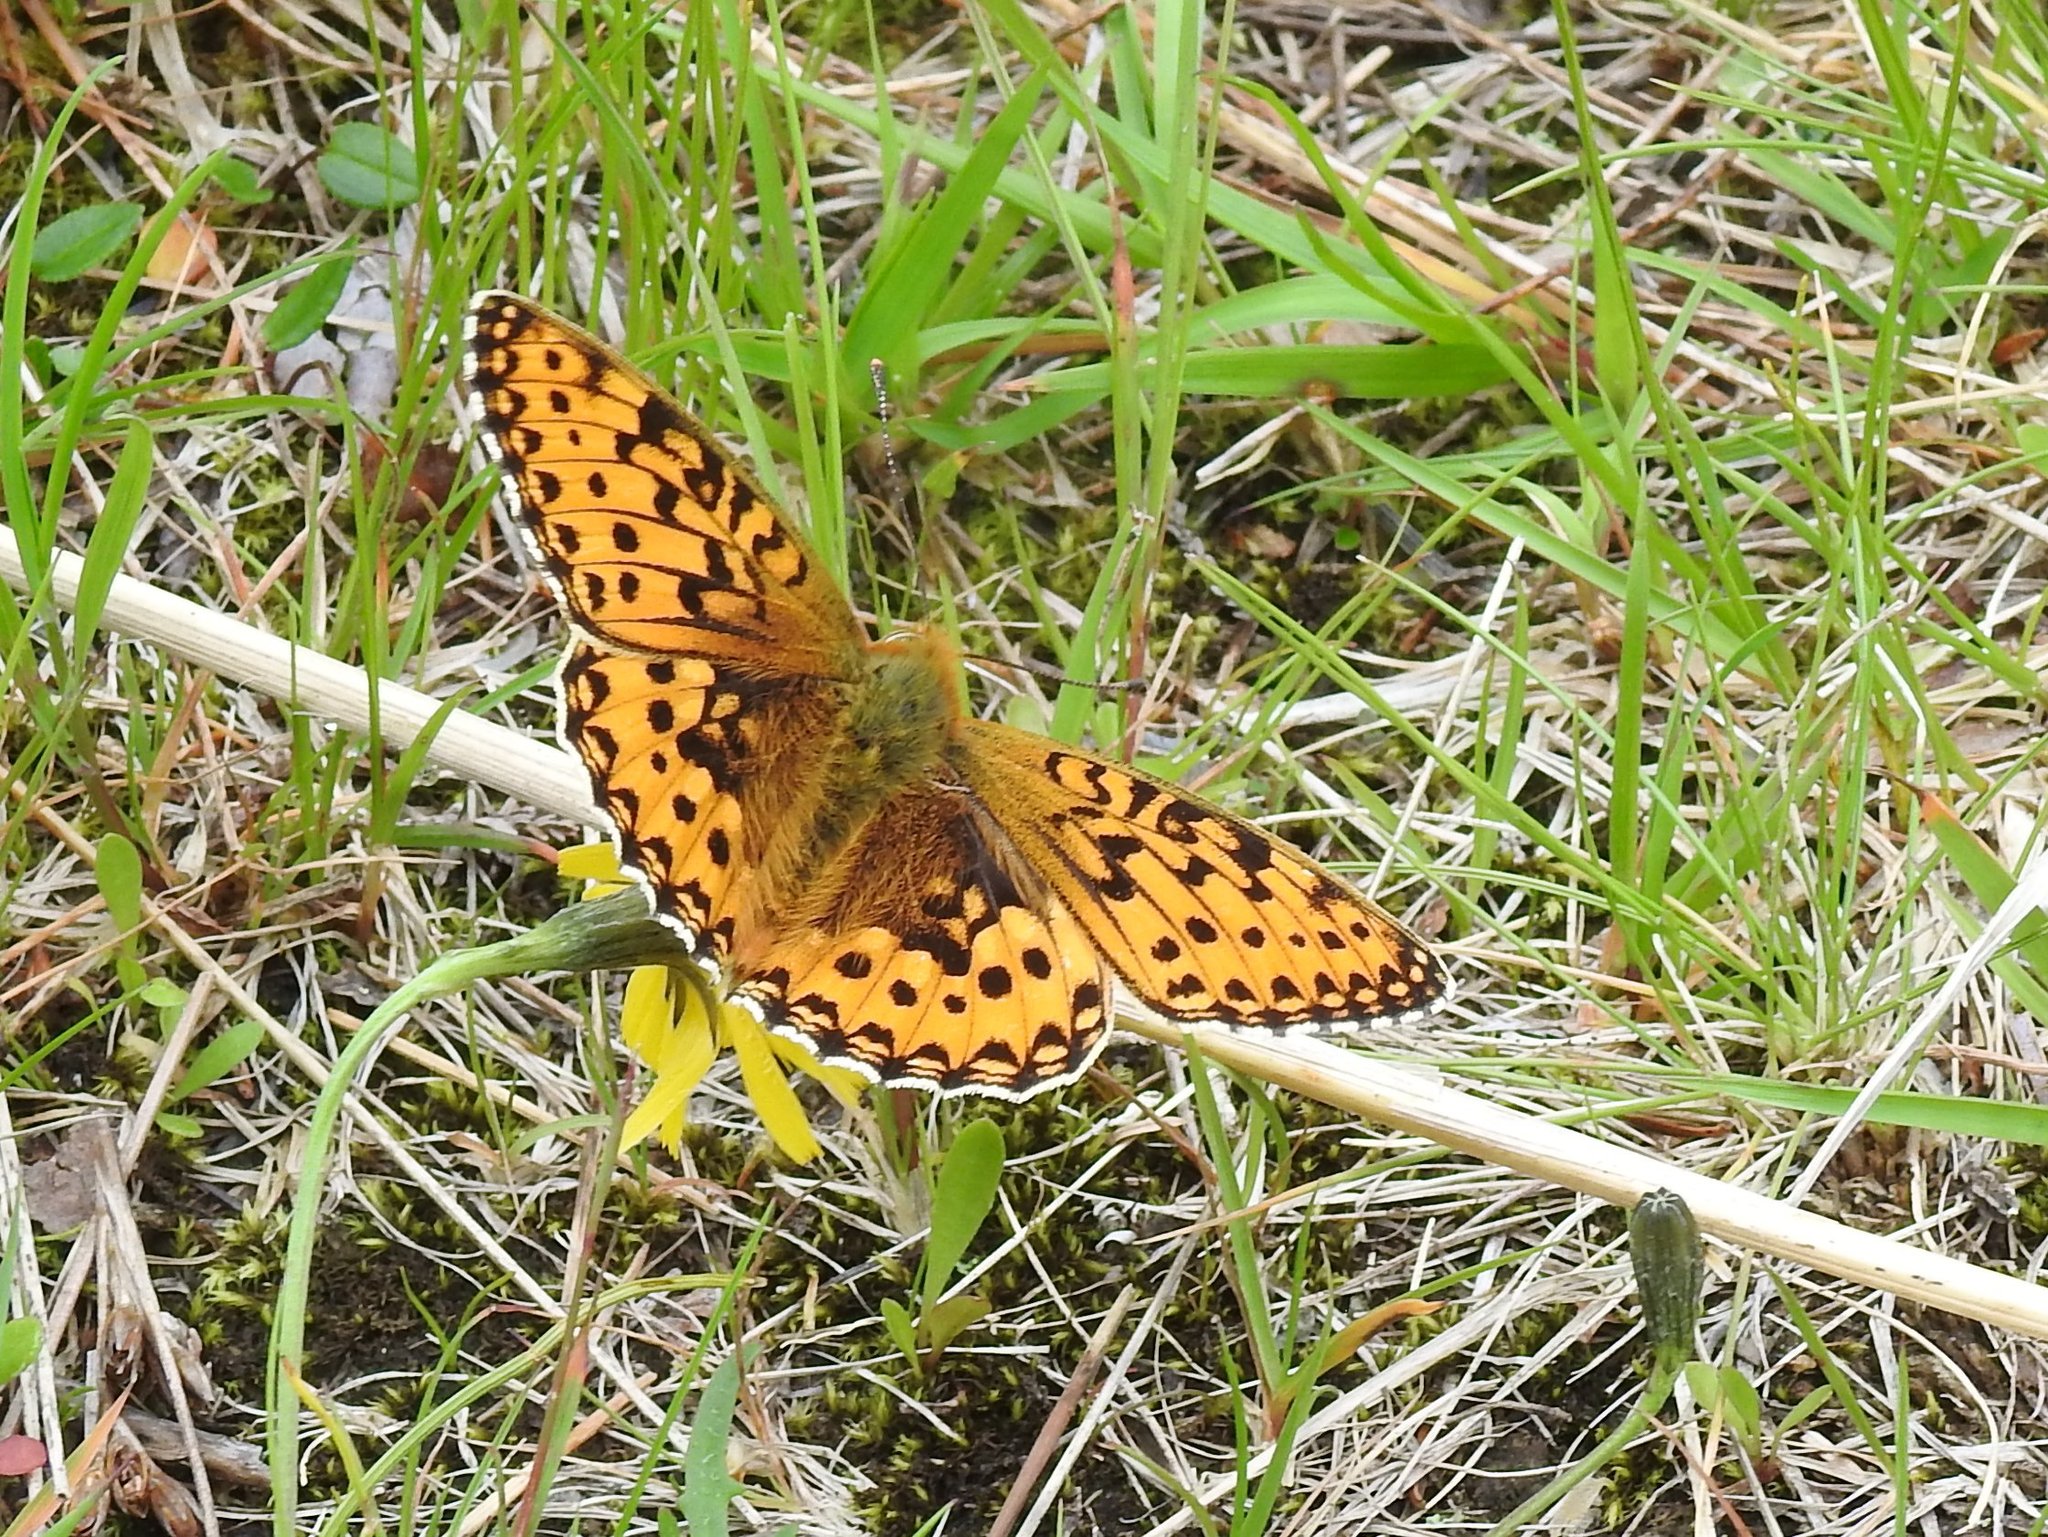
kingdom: Animalia
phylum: Arthropoda
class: Insecta
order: Lepidoptera
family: Nymphalidae
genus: Speyeria
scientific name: Speyeria aglaja
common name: Dark green fritillary
